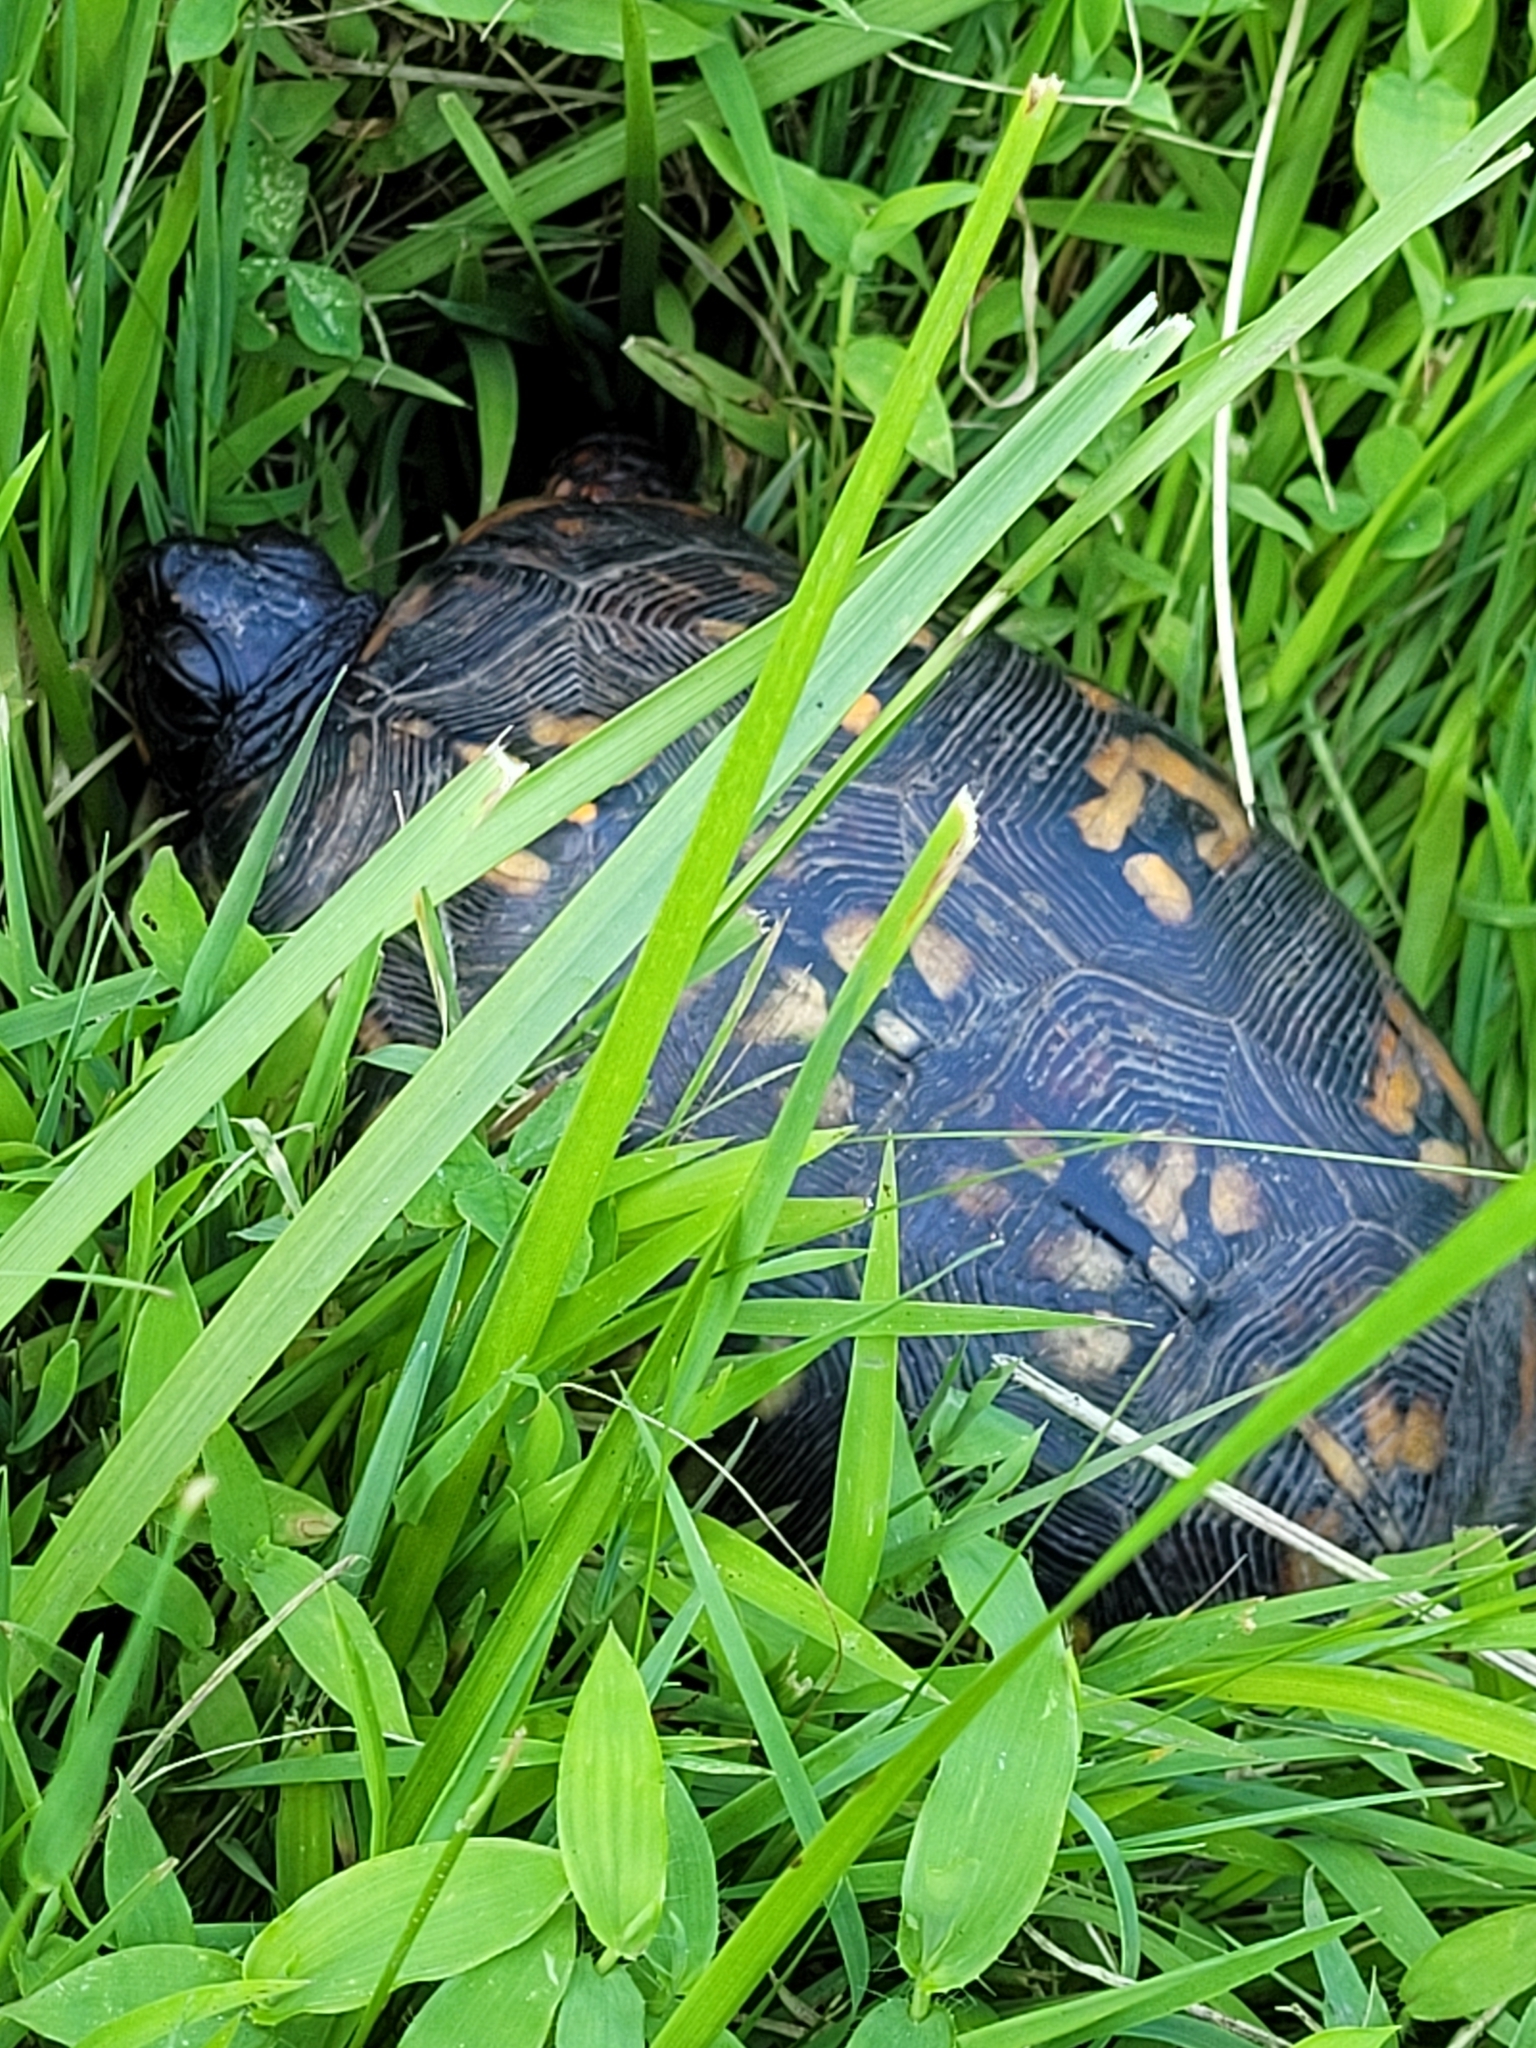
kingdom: Animalia
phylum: Chordata
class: Testudines
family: Emydidae
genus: Terrapene
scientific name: Terrapene carolina
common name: Common box turtle
